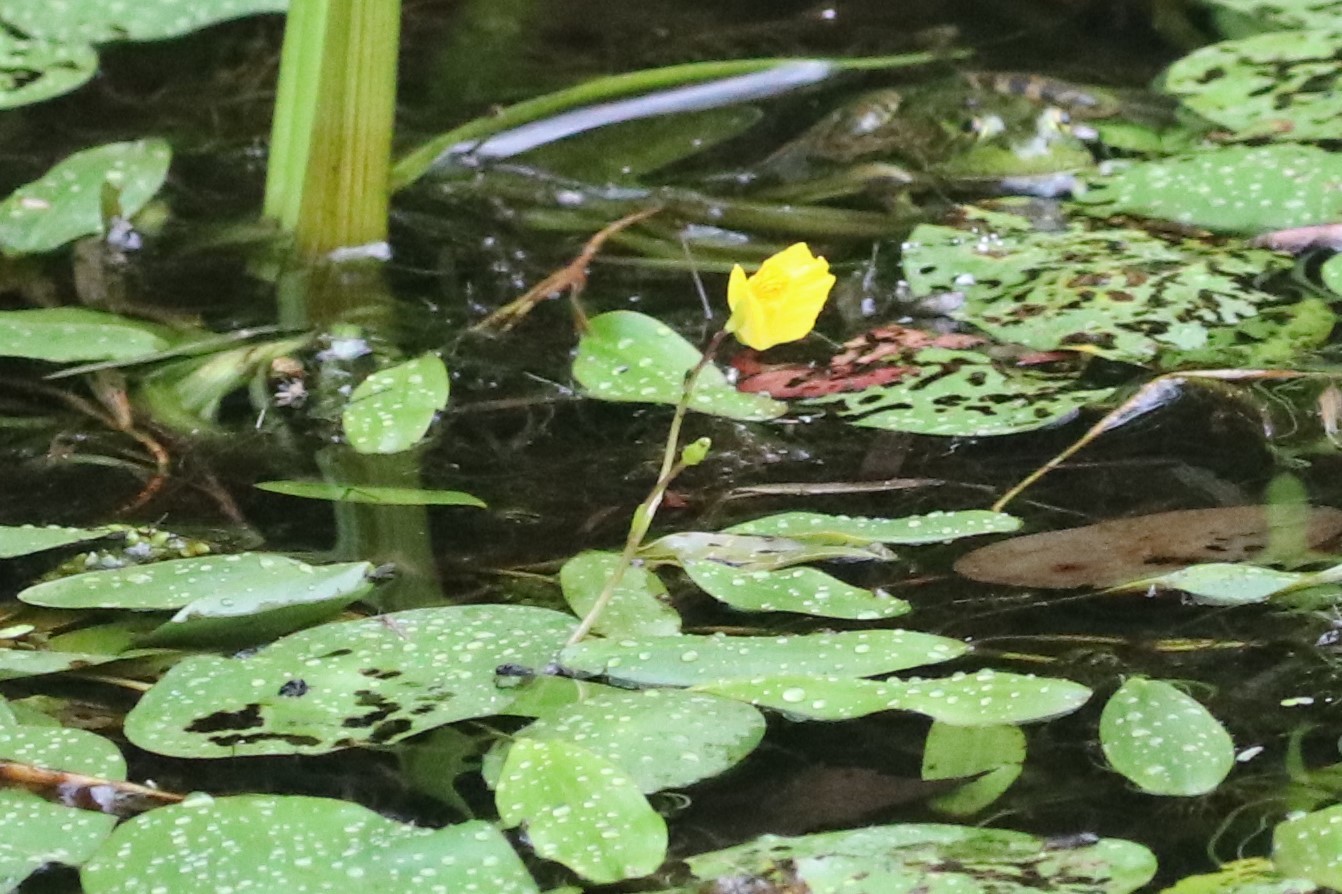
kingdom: Plantae
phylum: Tracheophyta
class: Magnoliopsida
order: Lamiales
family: Lentibulariaceae
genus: Utricularia
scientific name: Utricularia macrorhiza
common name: Common bladderwort
